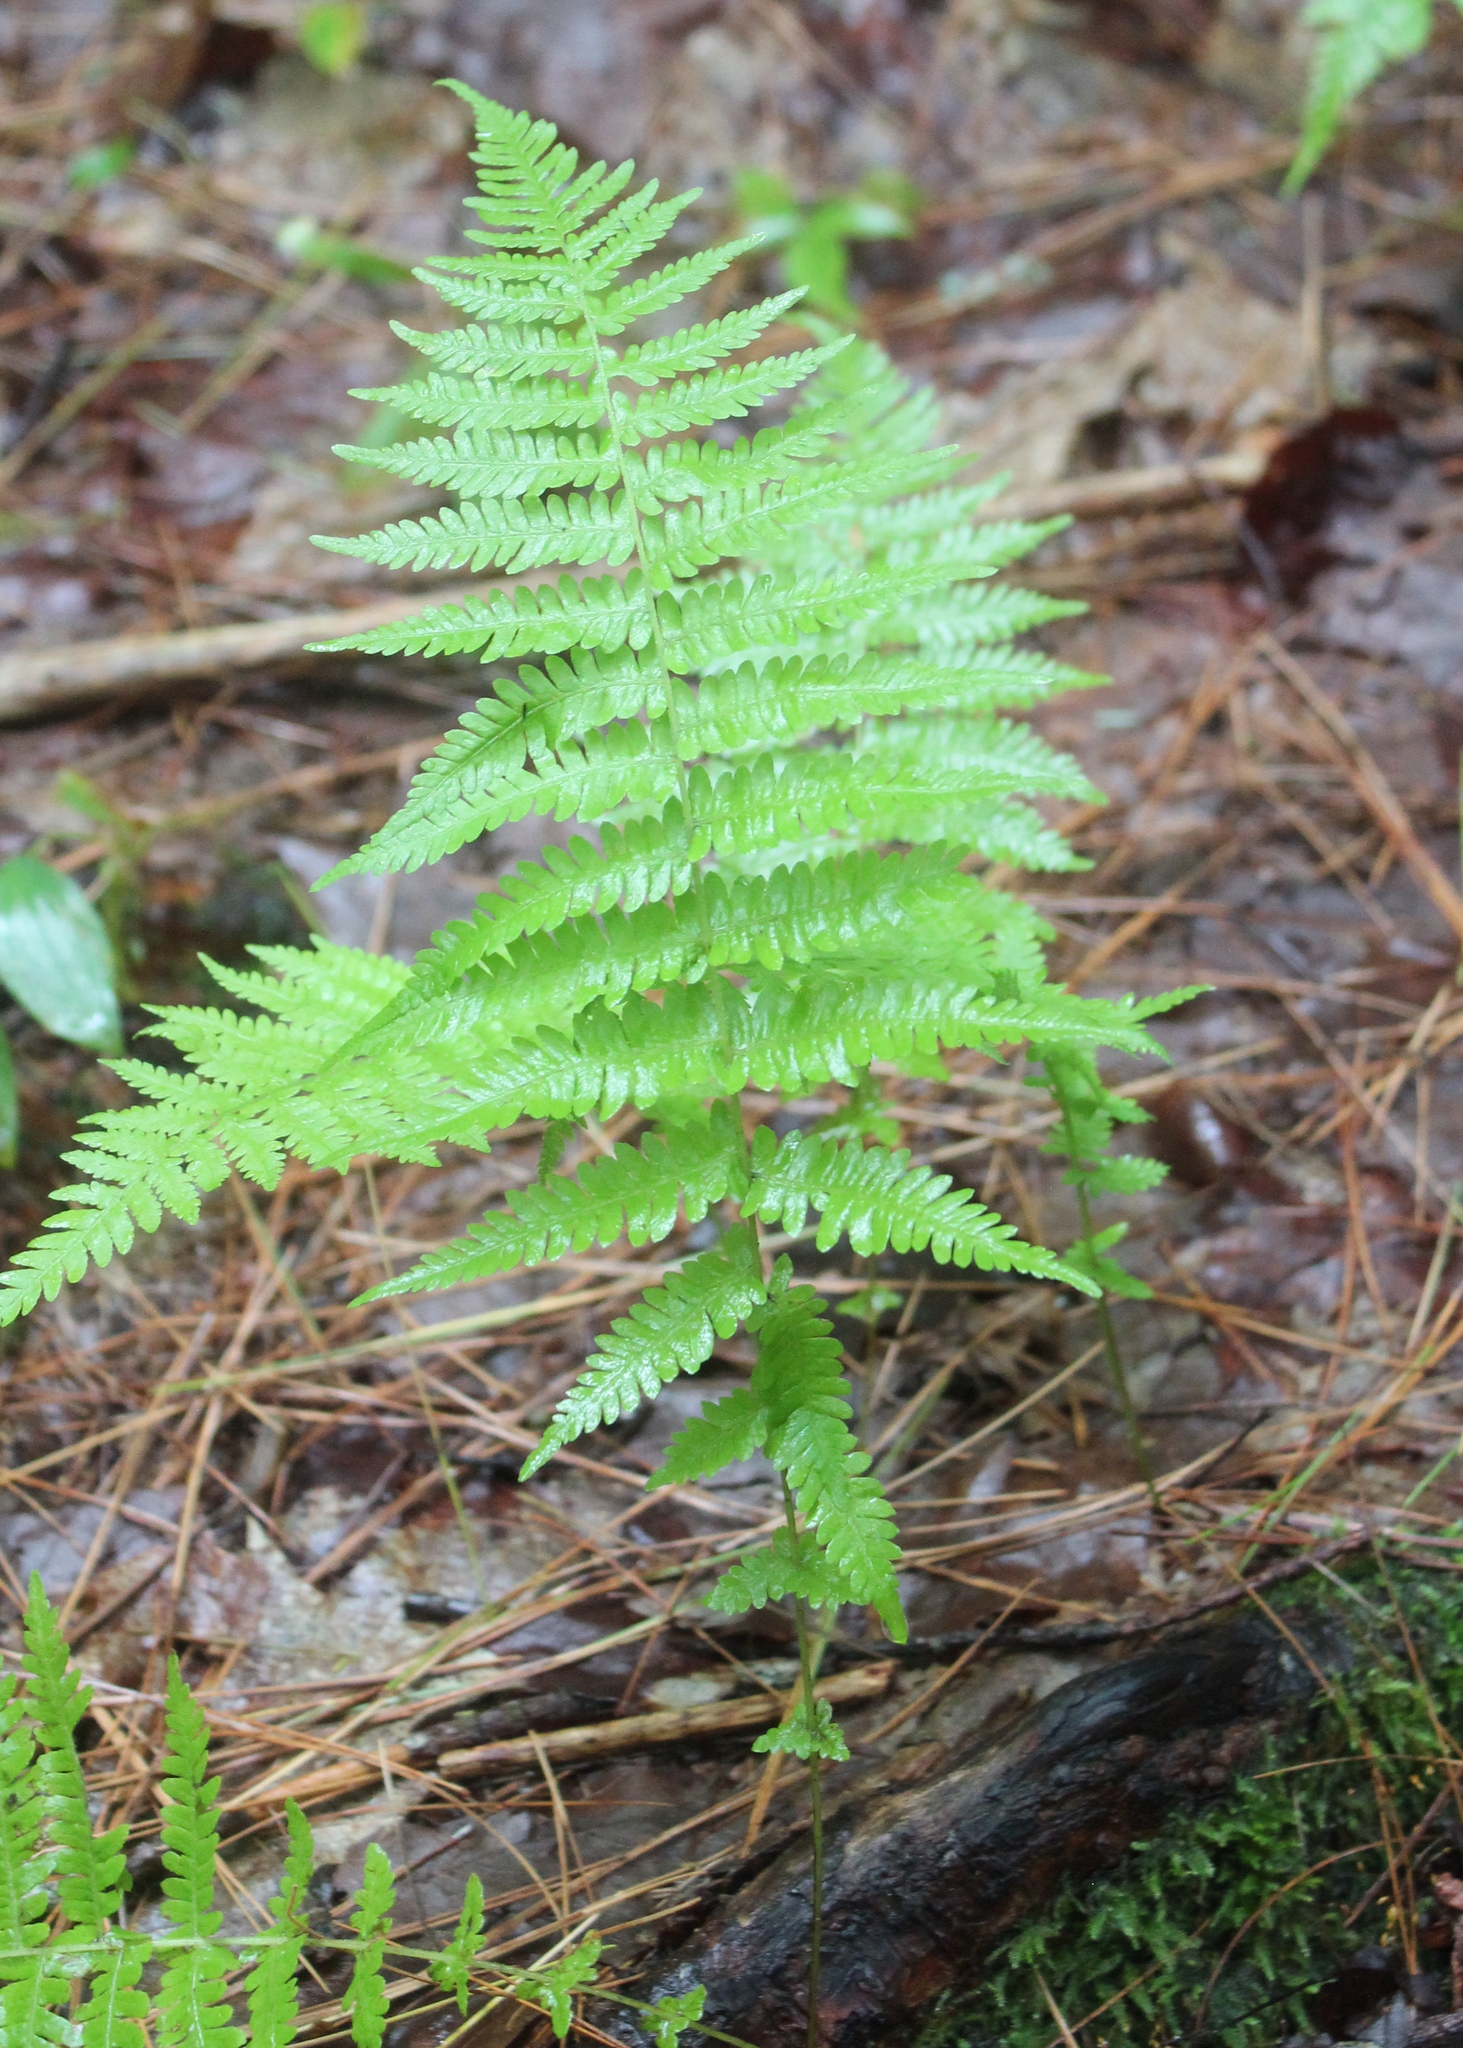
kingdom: Plantae
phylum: Tracheophyta
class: Polypodiopsida
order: Polypodiales
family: Thelypteridaceae
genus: Amauropelta
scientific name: Amauropelta noveboracensis
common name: New york fern
